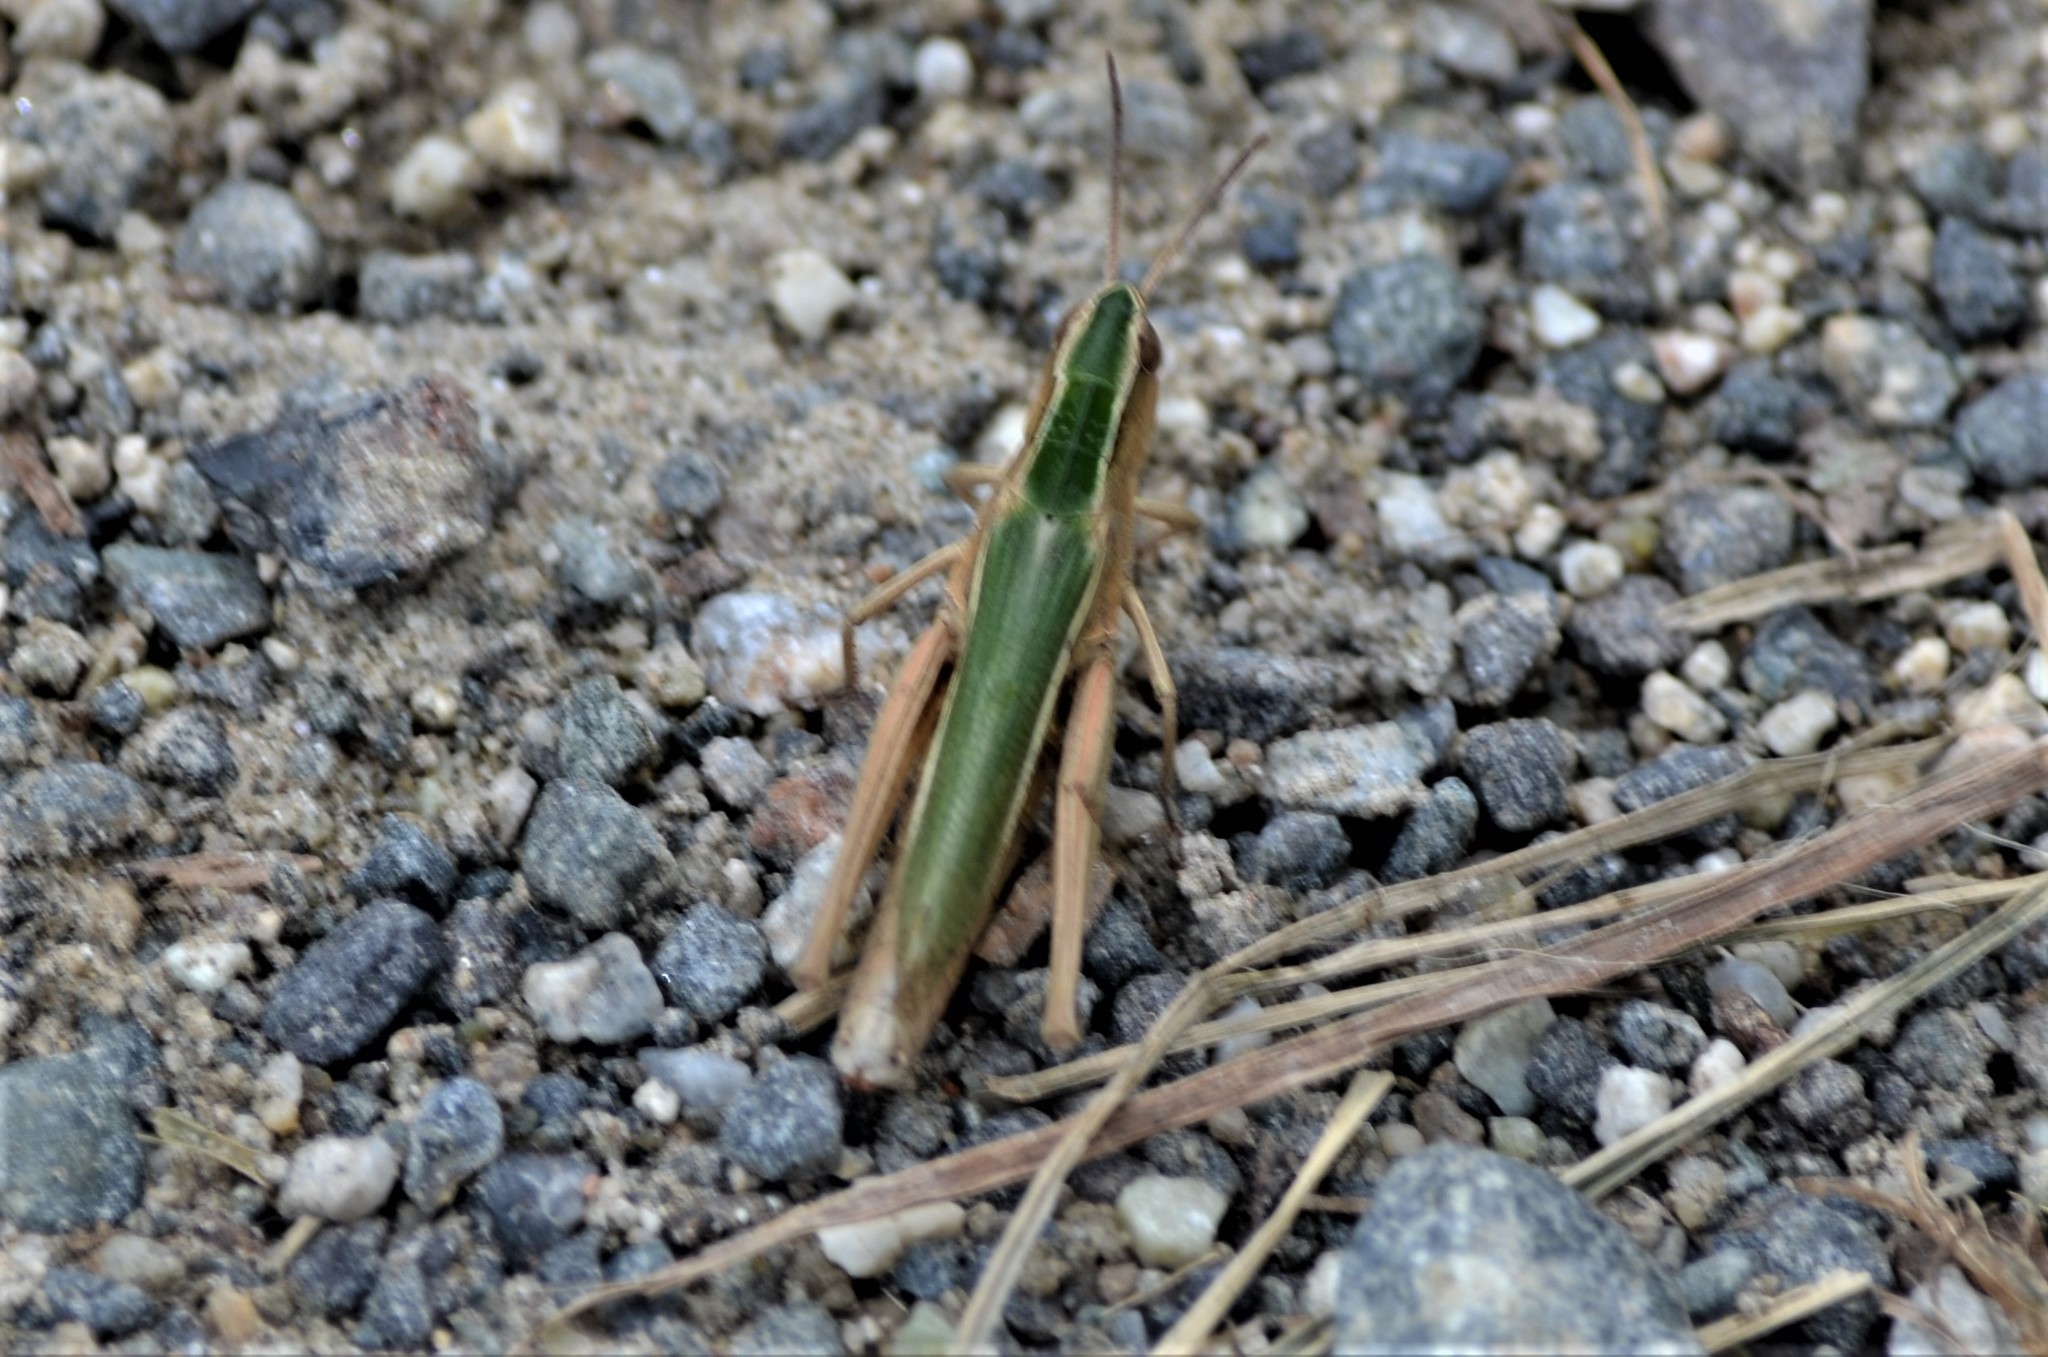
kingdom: Animalia
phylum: Arthropoda
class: Insecta
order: Orthoptera
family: Acrididae
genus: Chorthippus
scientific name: Chorthippus albomarginatus
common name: Lesser marsh grasshopper
